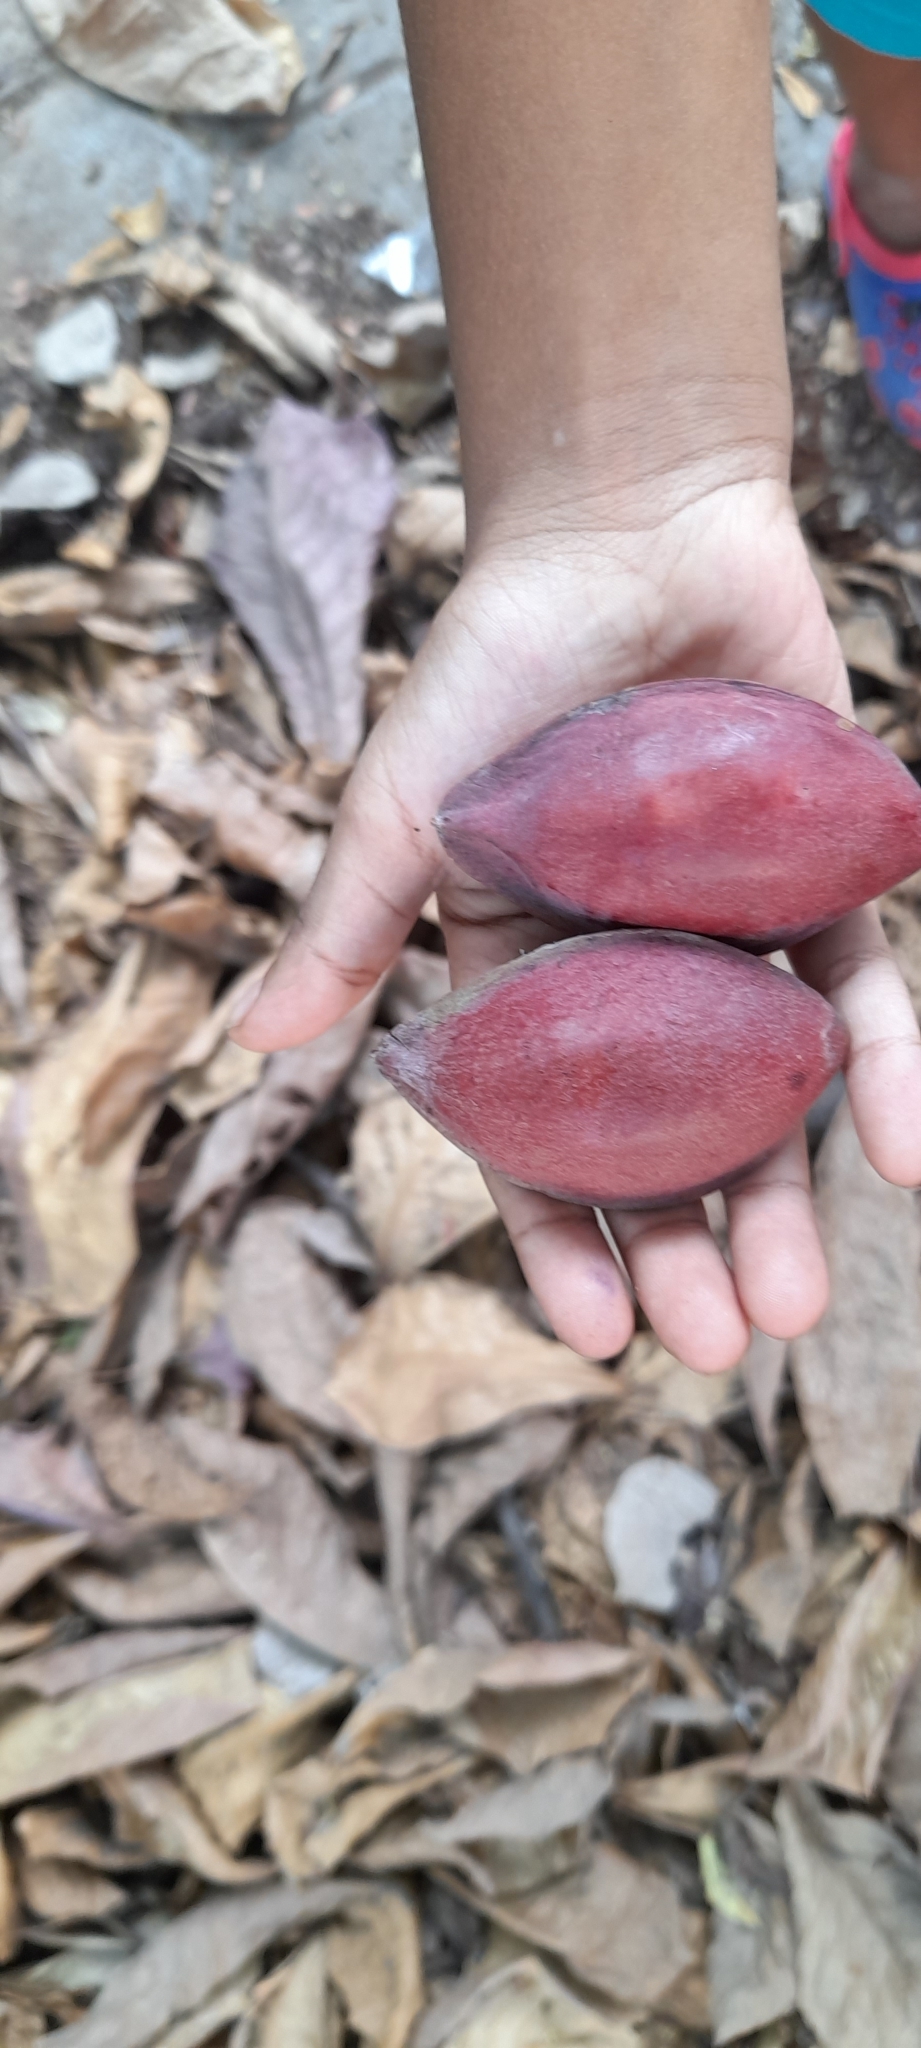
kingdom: Plantae
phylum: Tracheophyta
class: Magnoliopsida
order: Myrtales
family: Combretaceae
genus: Terminalia
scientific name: Terminalia catappa
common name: Tropical almond
